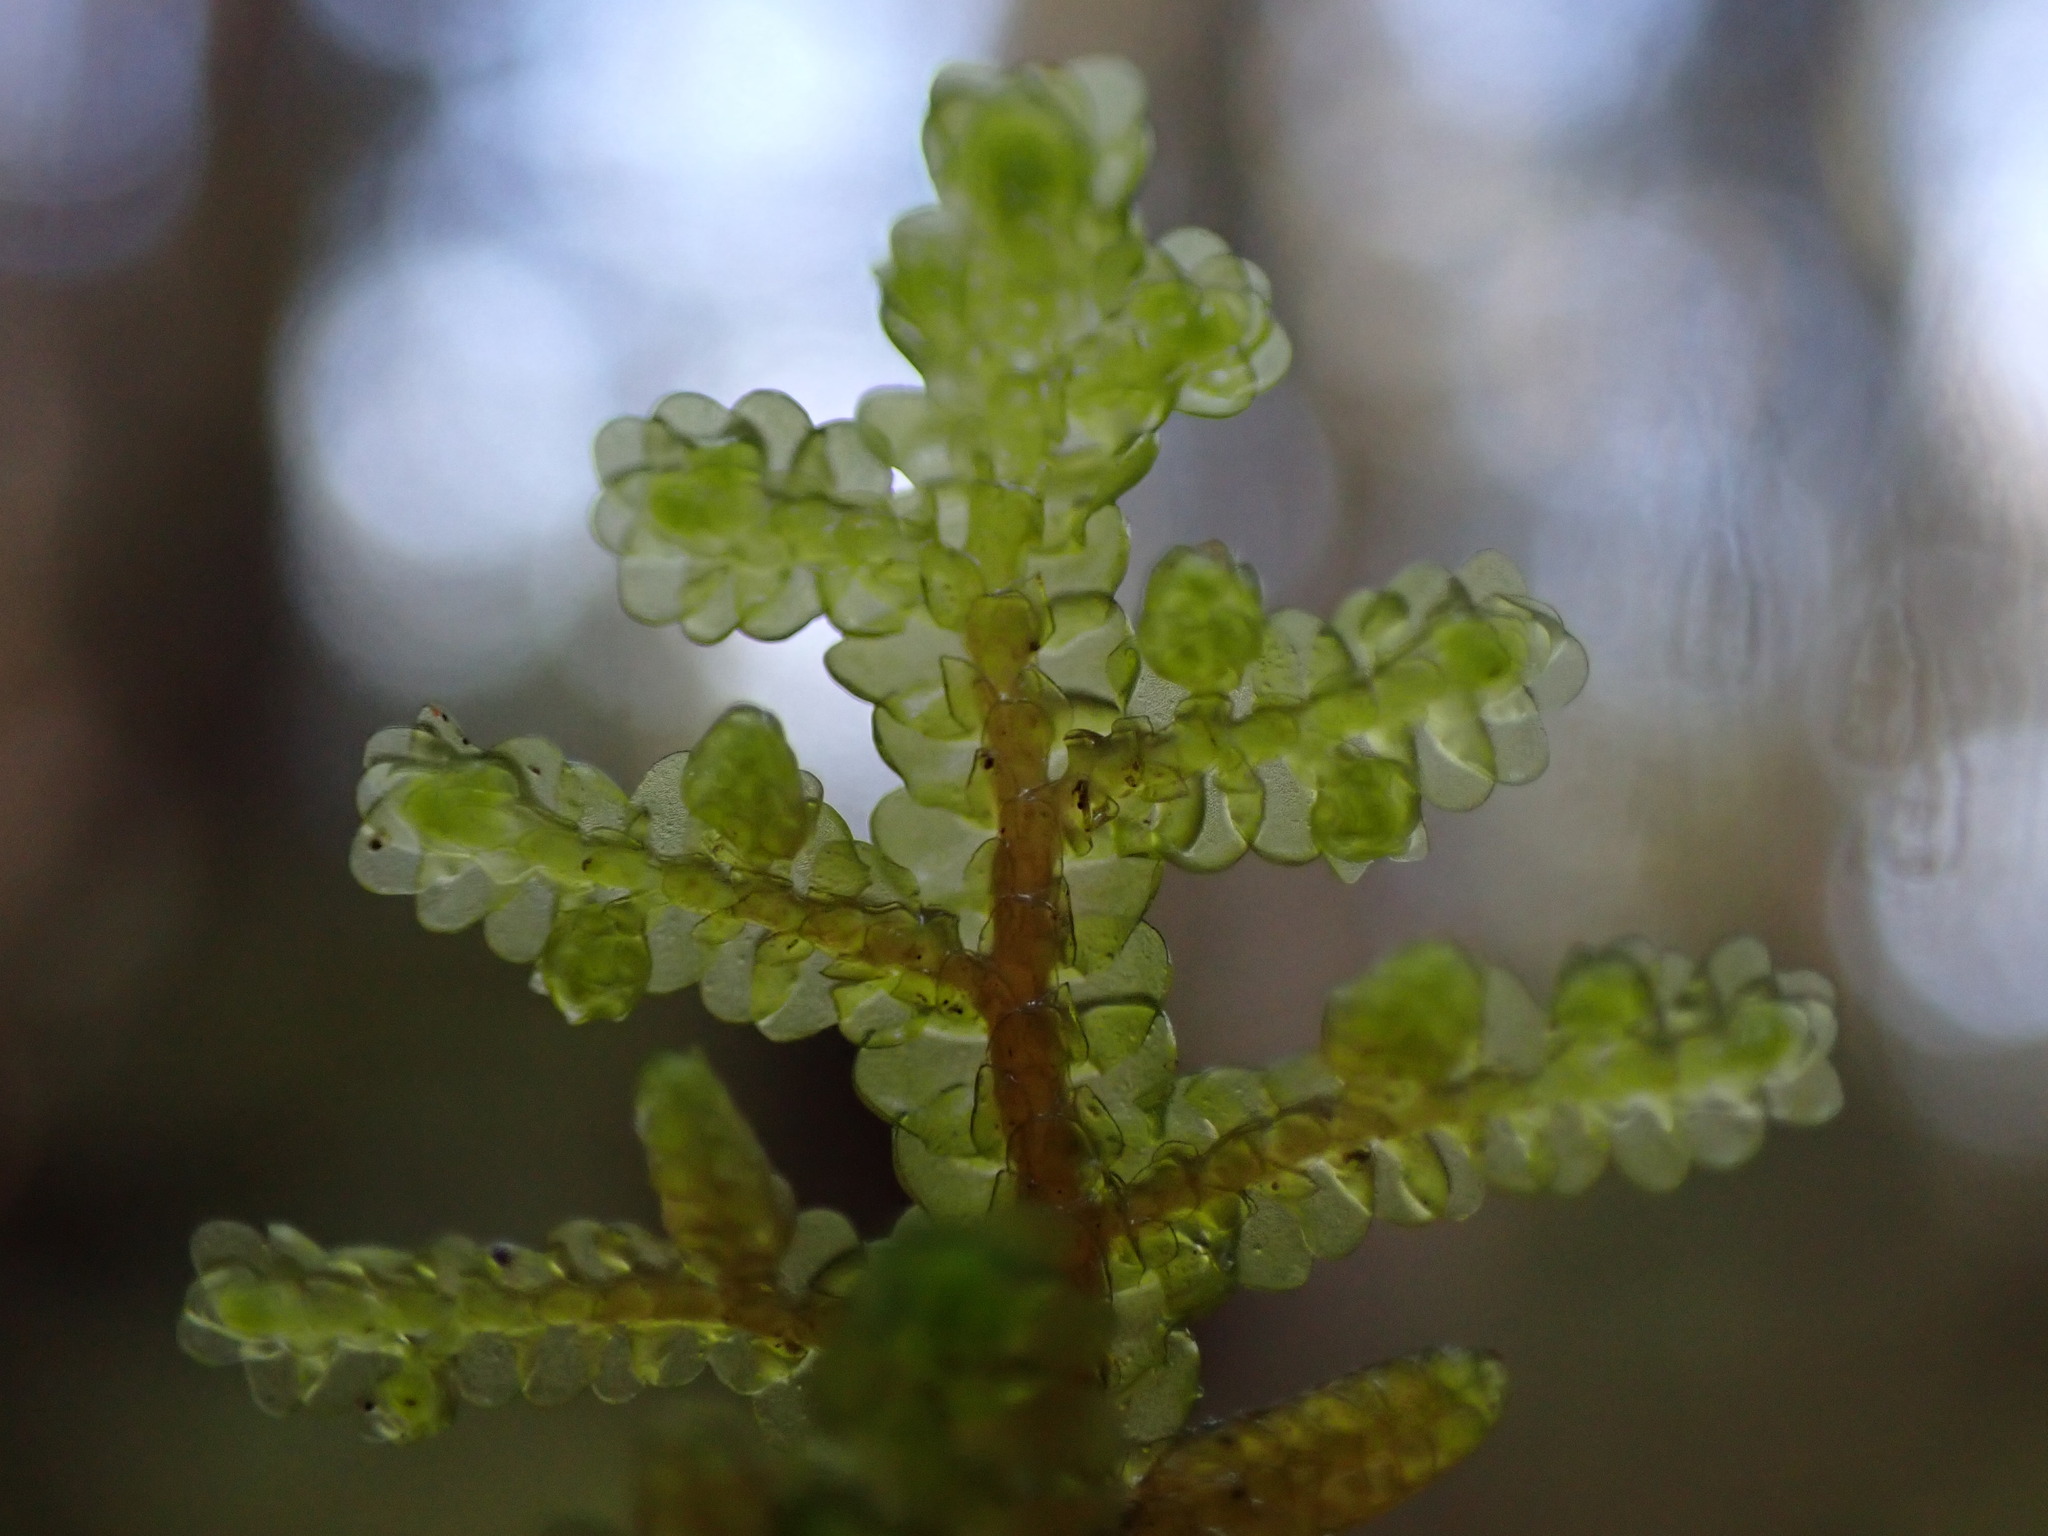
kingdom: Plantae
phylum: Marchantiophyta
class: Jungermanniopsida
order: Porellales
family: Porellaceae
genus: Porella
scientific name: Porella navicularis
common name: Tree ruffle liverwort
